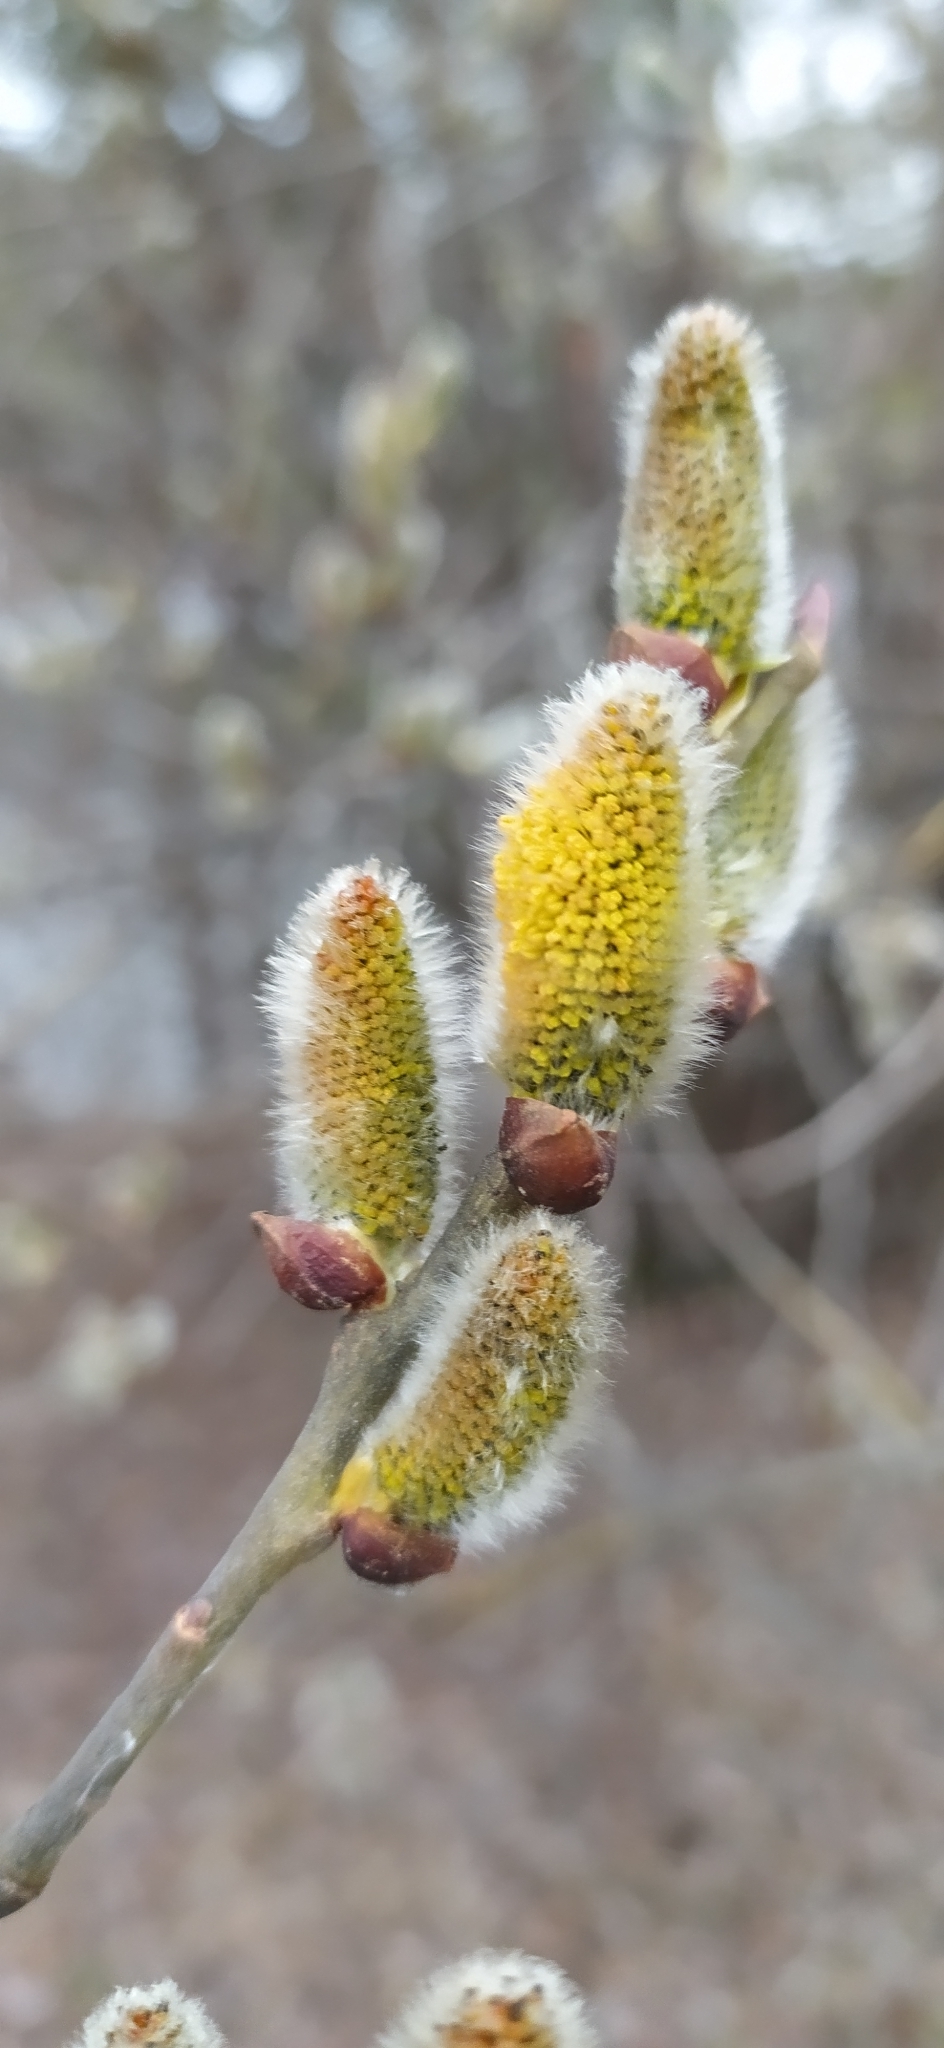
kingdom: Plantae
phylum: Tracheophyta
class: Magnoliopsida
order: Malpighiales
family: Salicaceae
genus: Salix
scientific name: Salix caprea
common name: Goat willow
